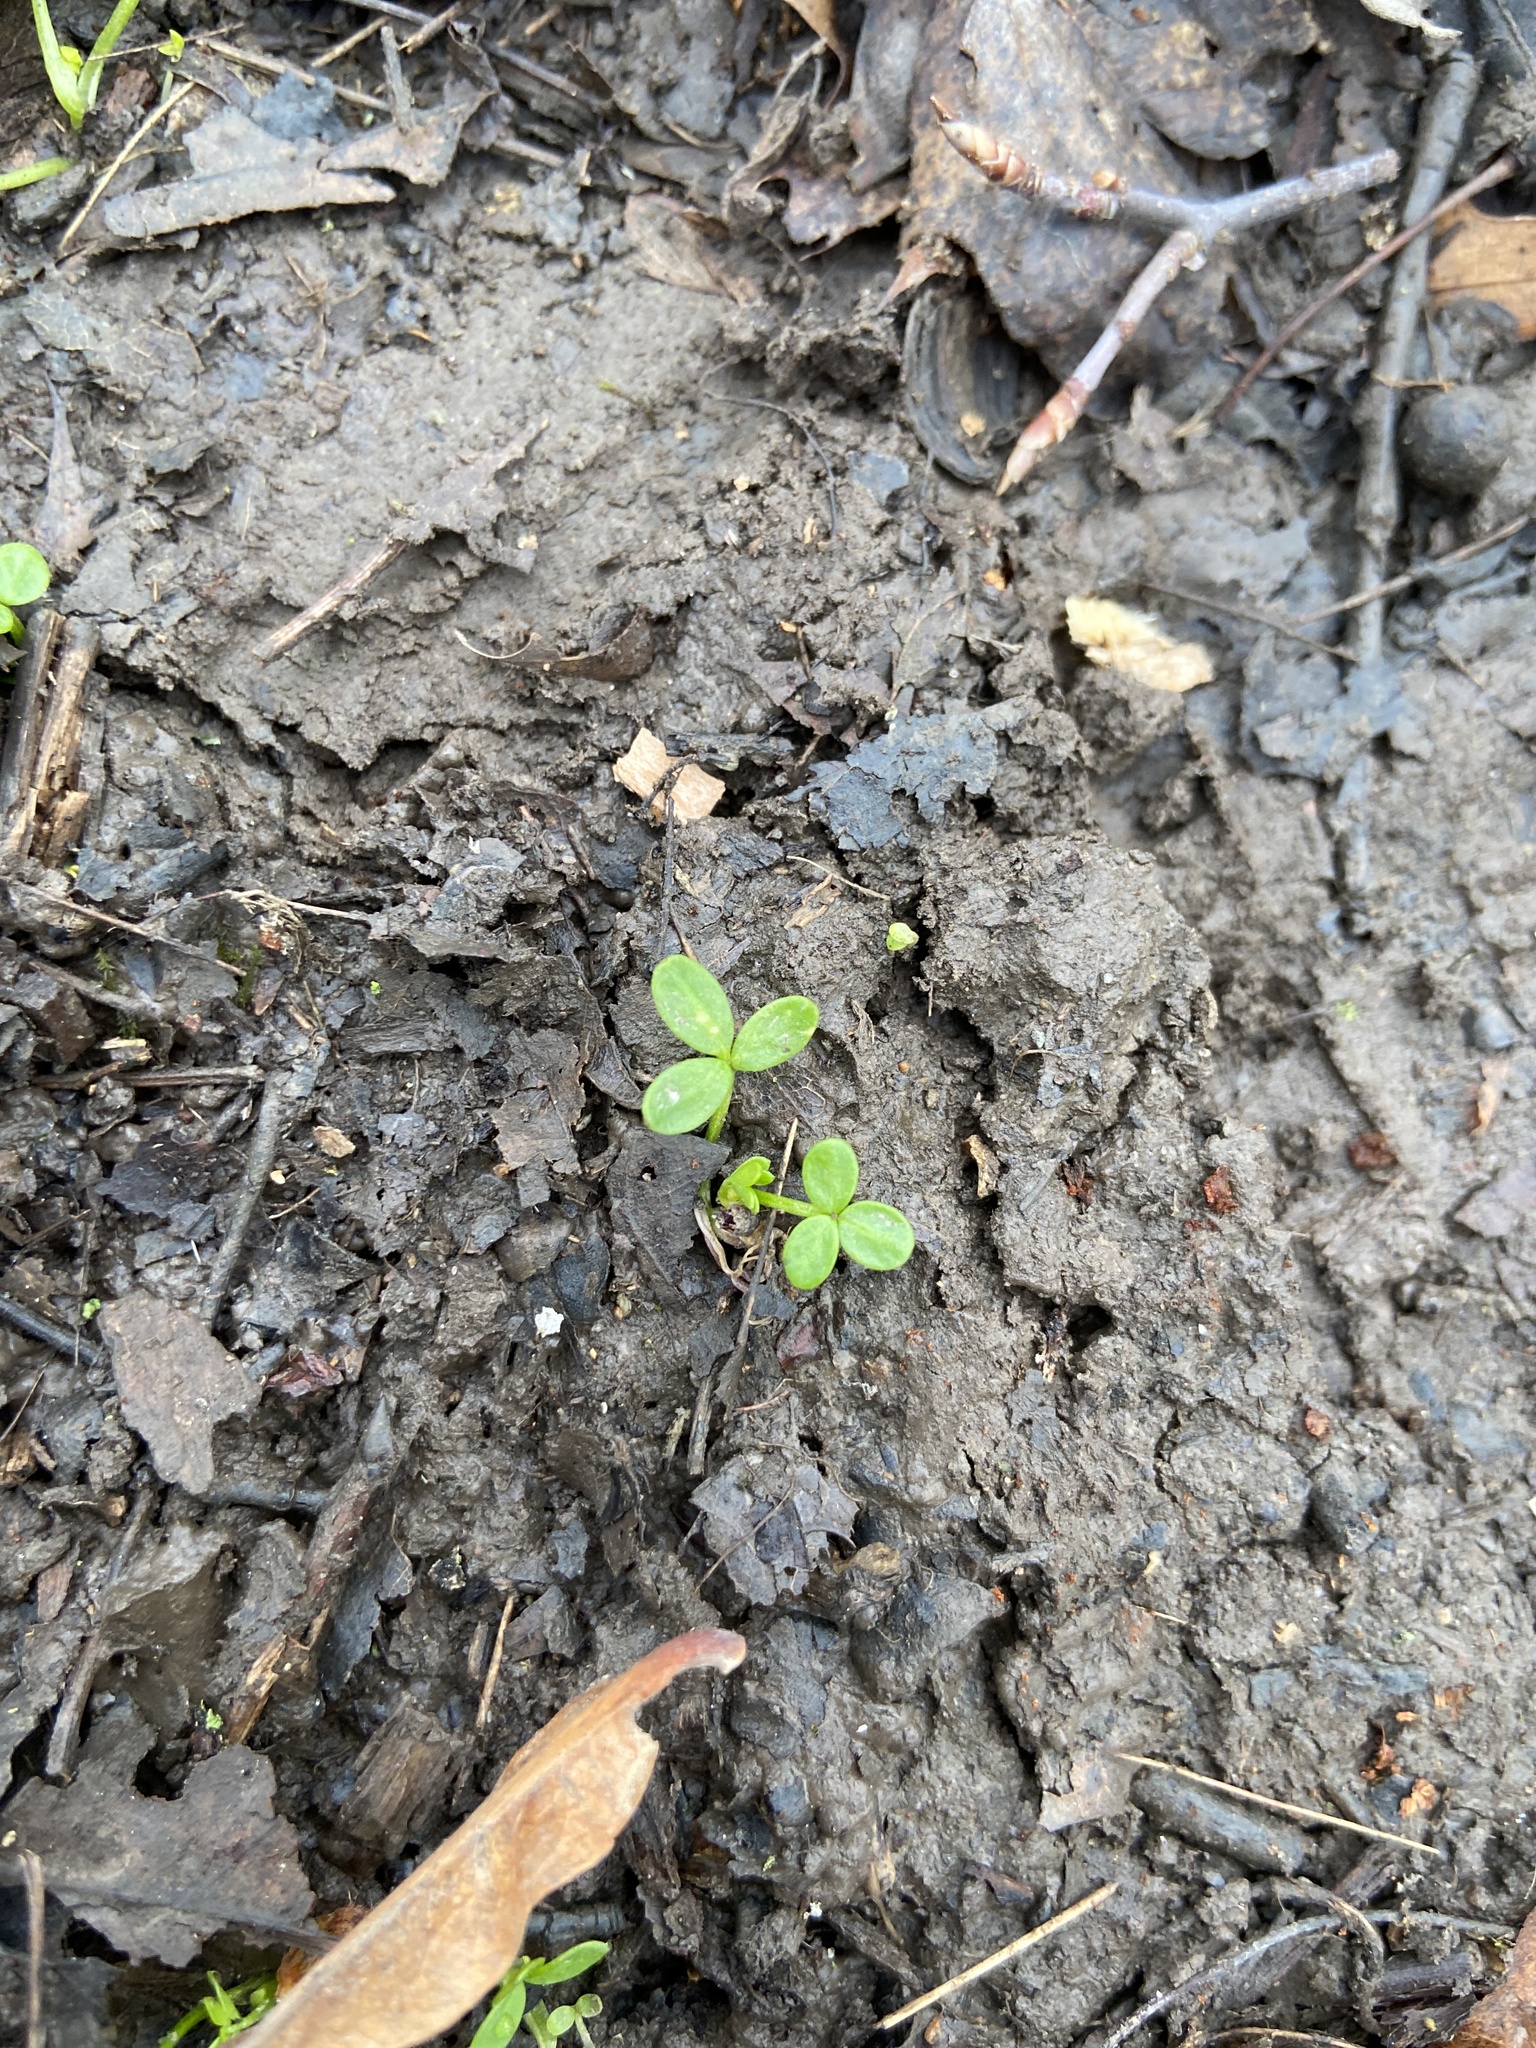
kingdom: Plantae
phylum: Tracheophyta
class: Magnoliopsida
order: Brassicales
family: Limnanthaceae
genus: Floerkea
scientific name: Floerkea proserpinacoides
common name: False mermaid
